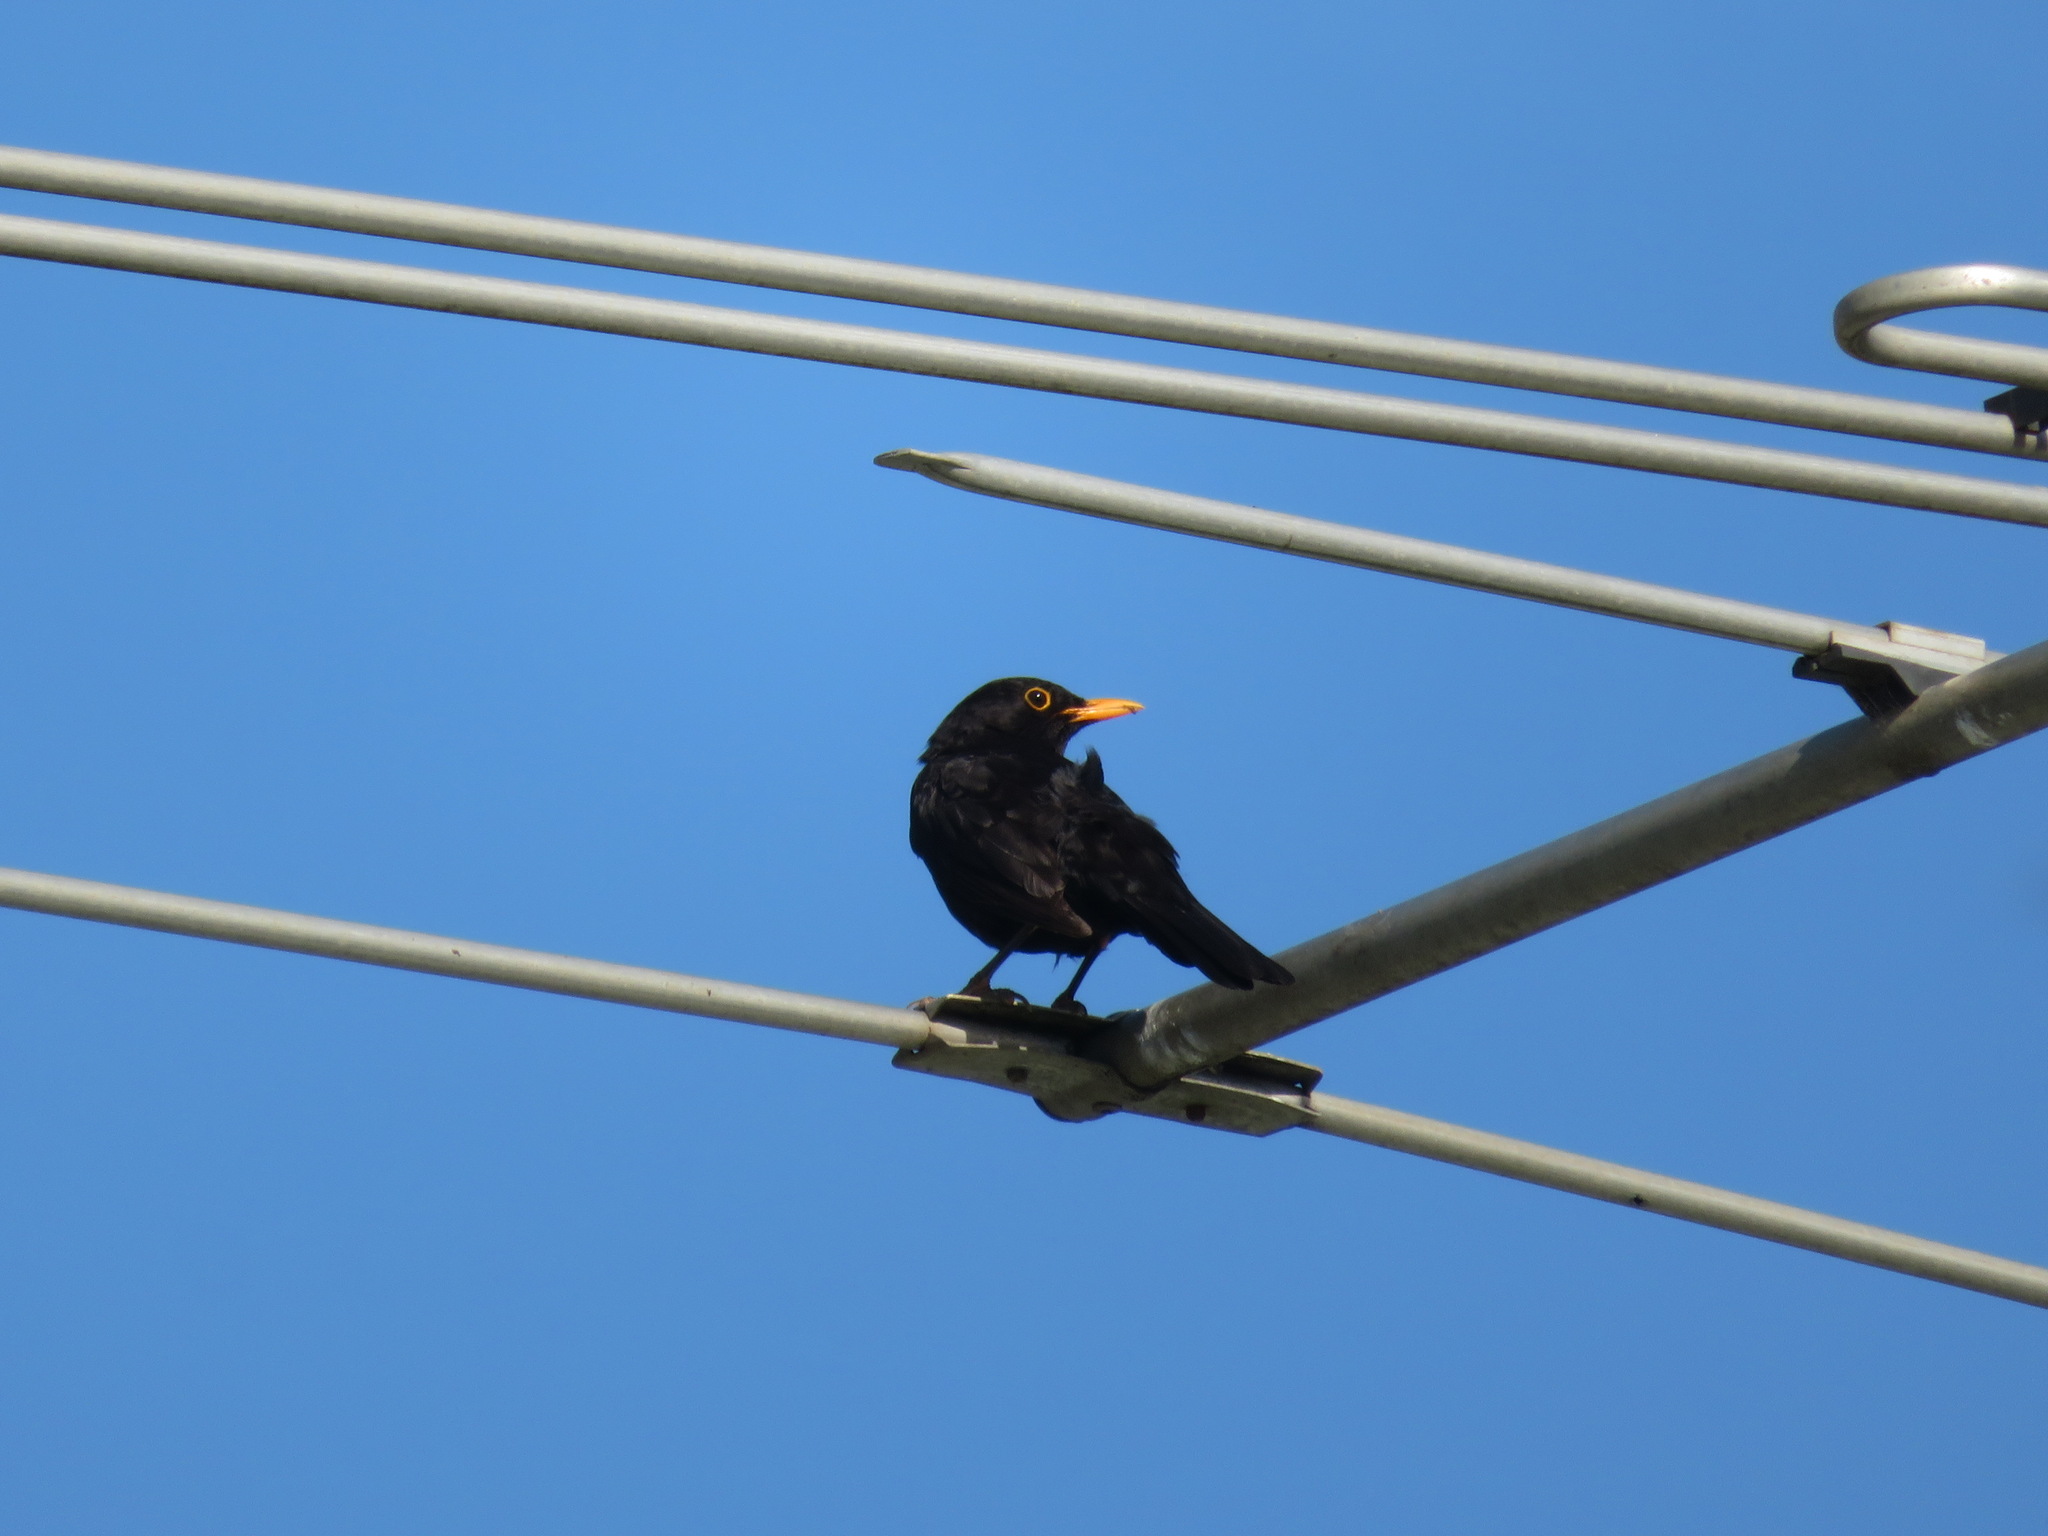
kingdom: Animalia
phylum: Chordata
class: Aves
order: Passeriformes
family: Turdidae
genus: Turdus
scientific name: Turdus merula
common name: Common blackbird
